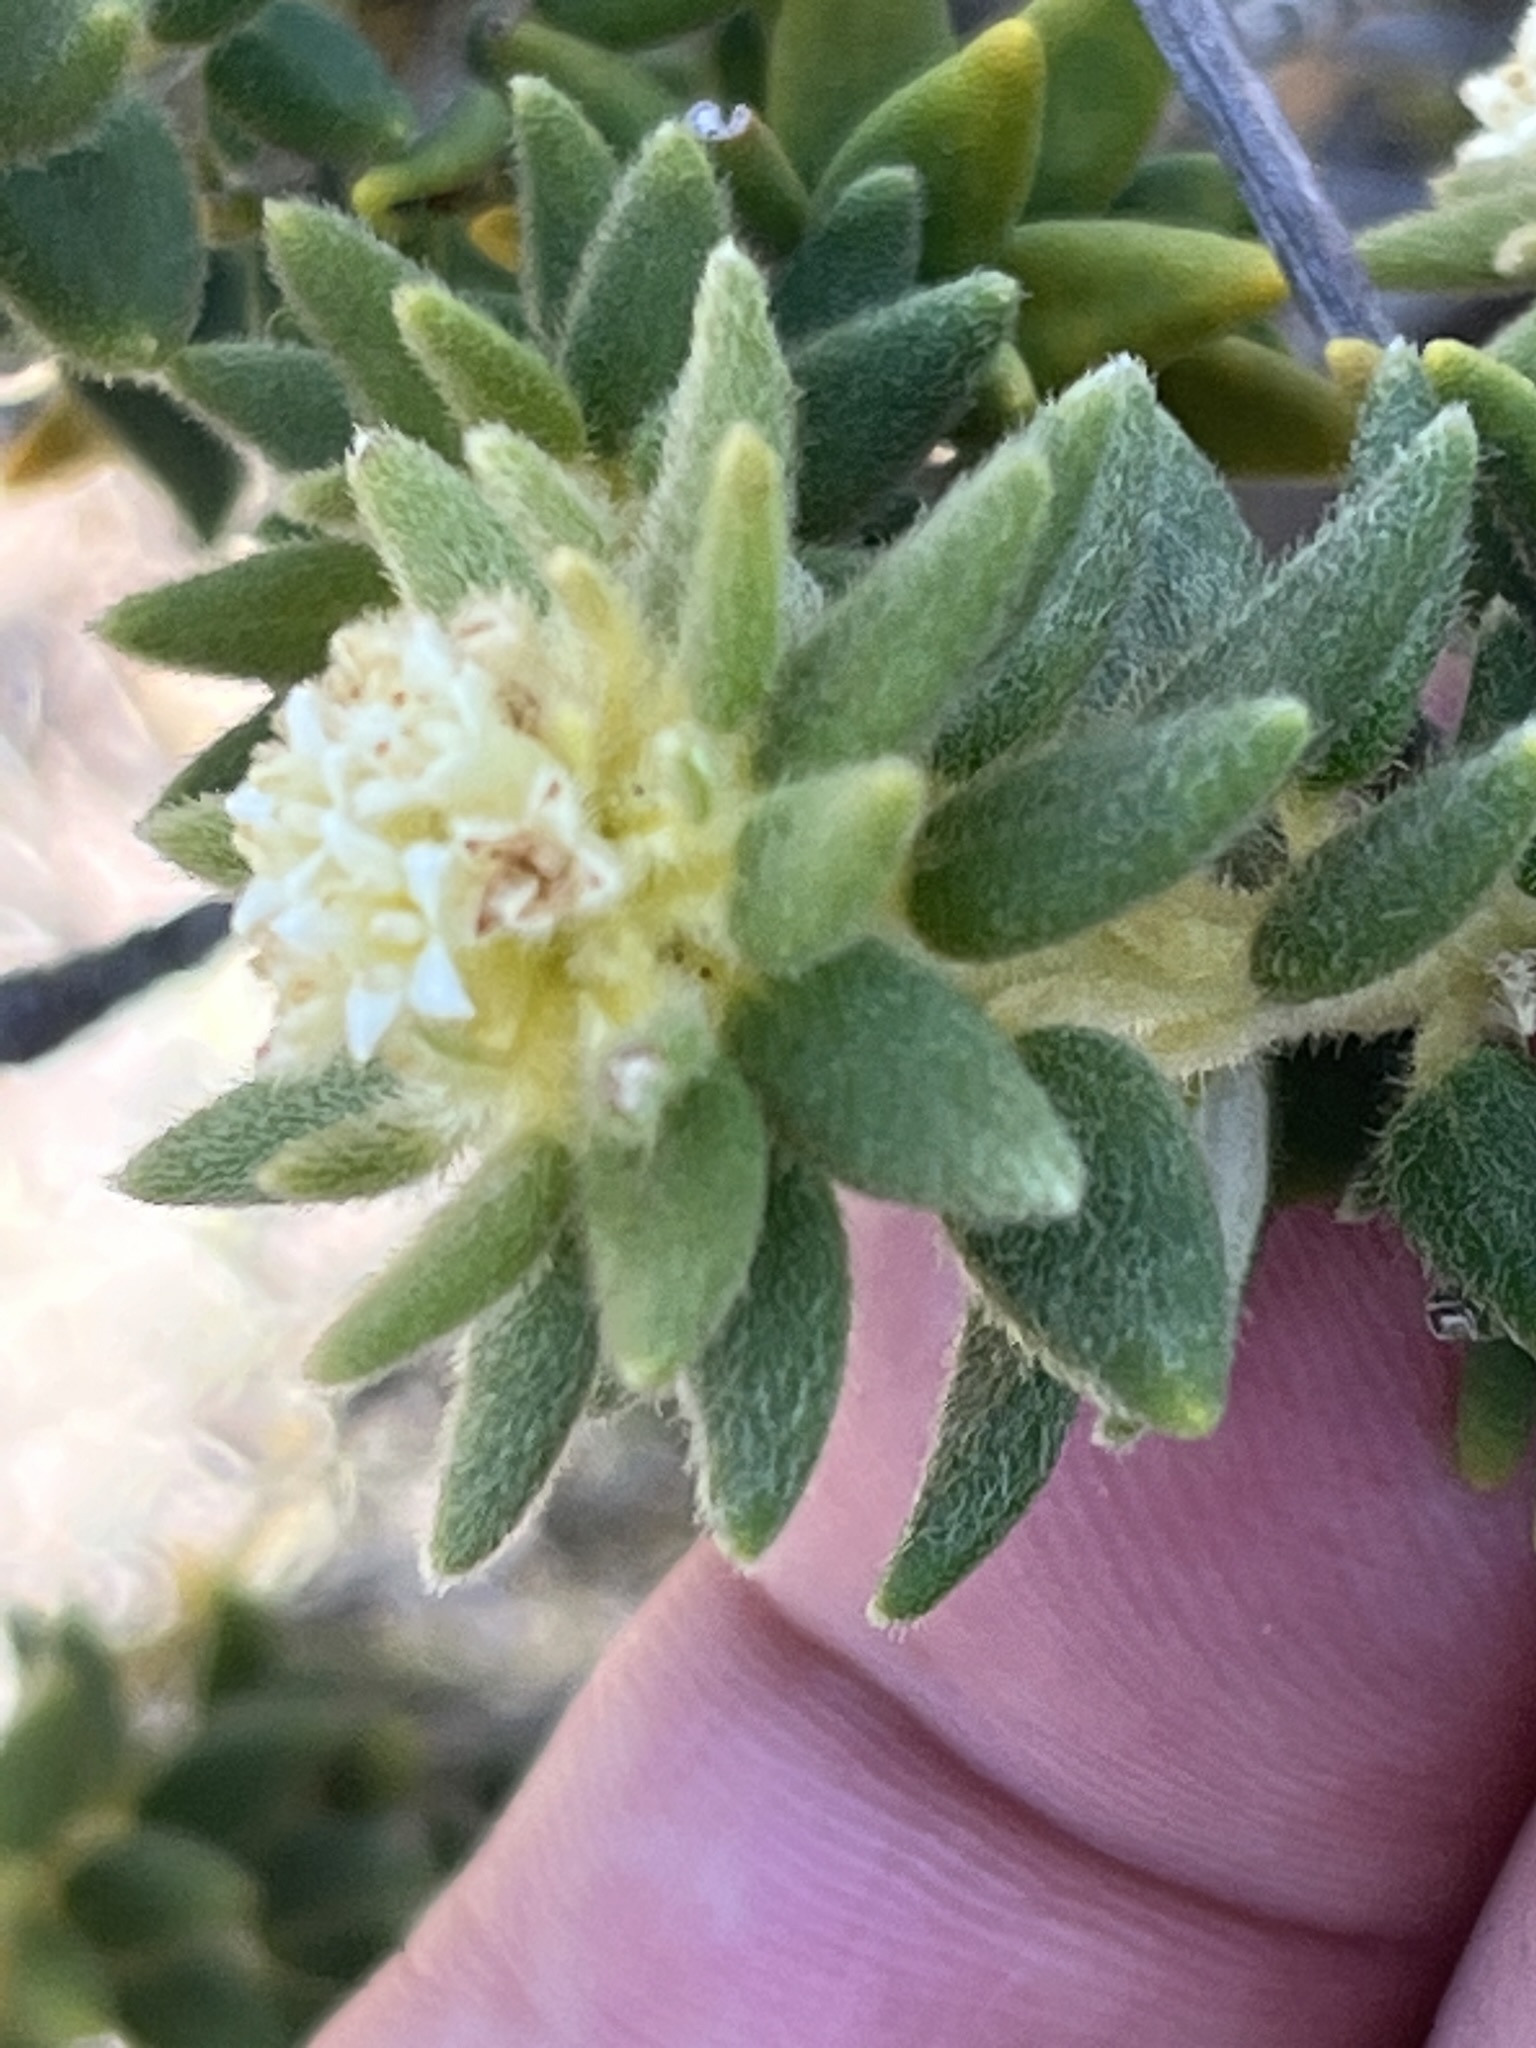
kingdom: Plantae
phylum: Tracheophyta
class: Magnoliopsida
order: Rosales
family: Rhamnaceae
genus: Phylica
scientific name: Phylica dioica
